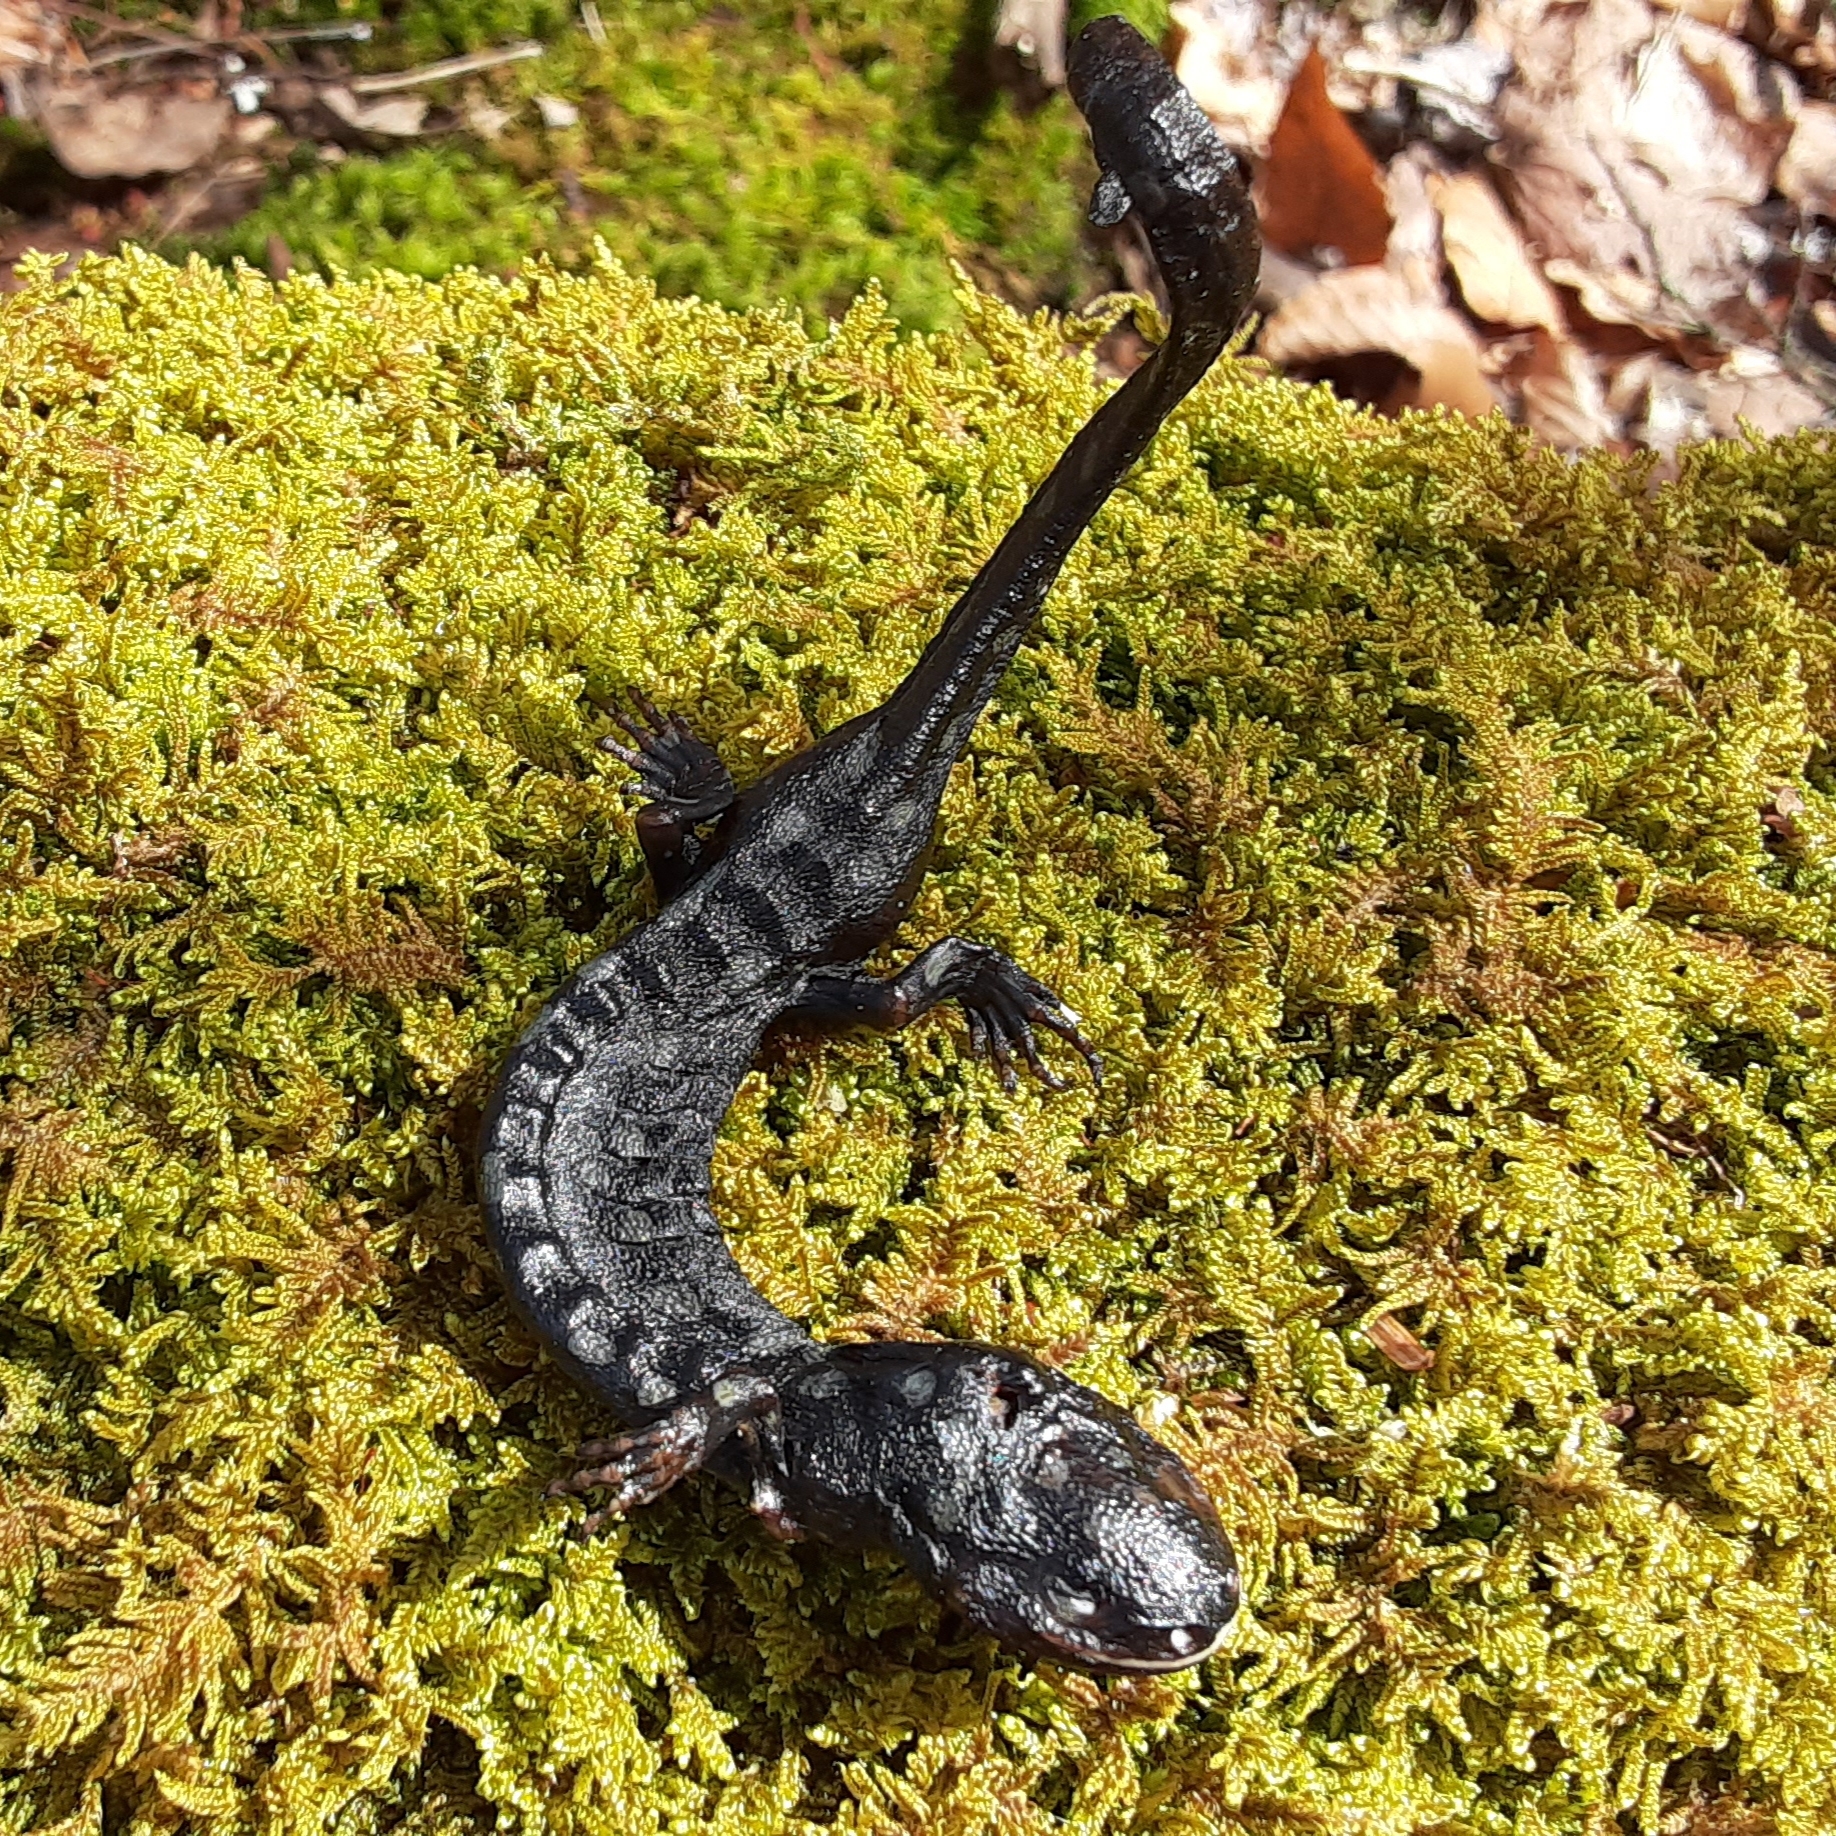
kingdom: Animalia
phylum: Chordata
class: Amphibia
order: Caudata
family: Ambystomatidae
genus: Ambystoma
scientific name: Ambystoma maculatum
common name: Spotted salamander
